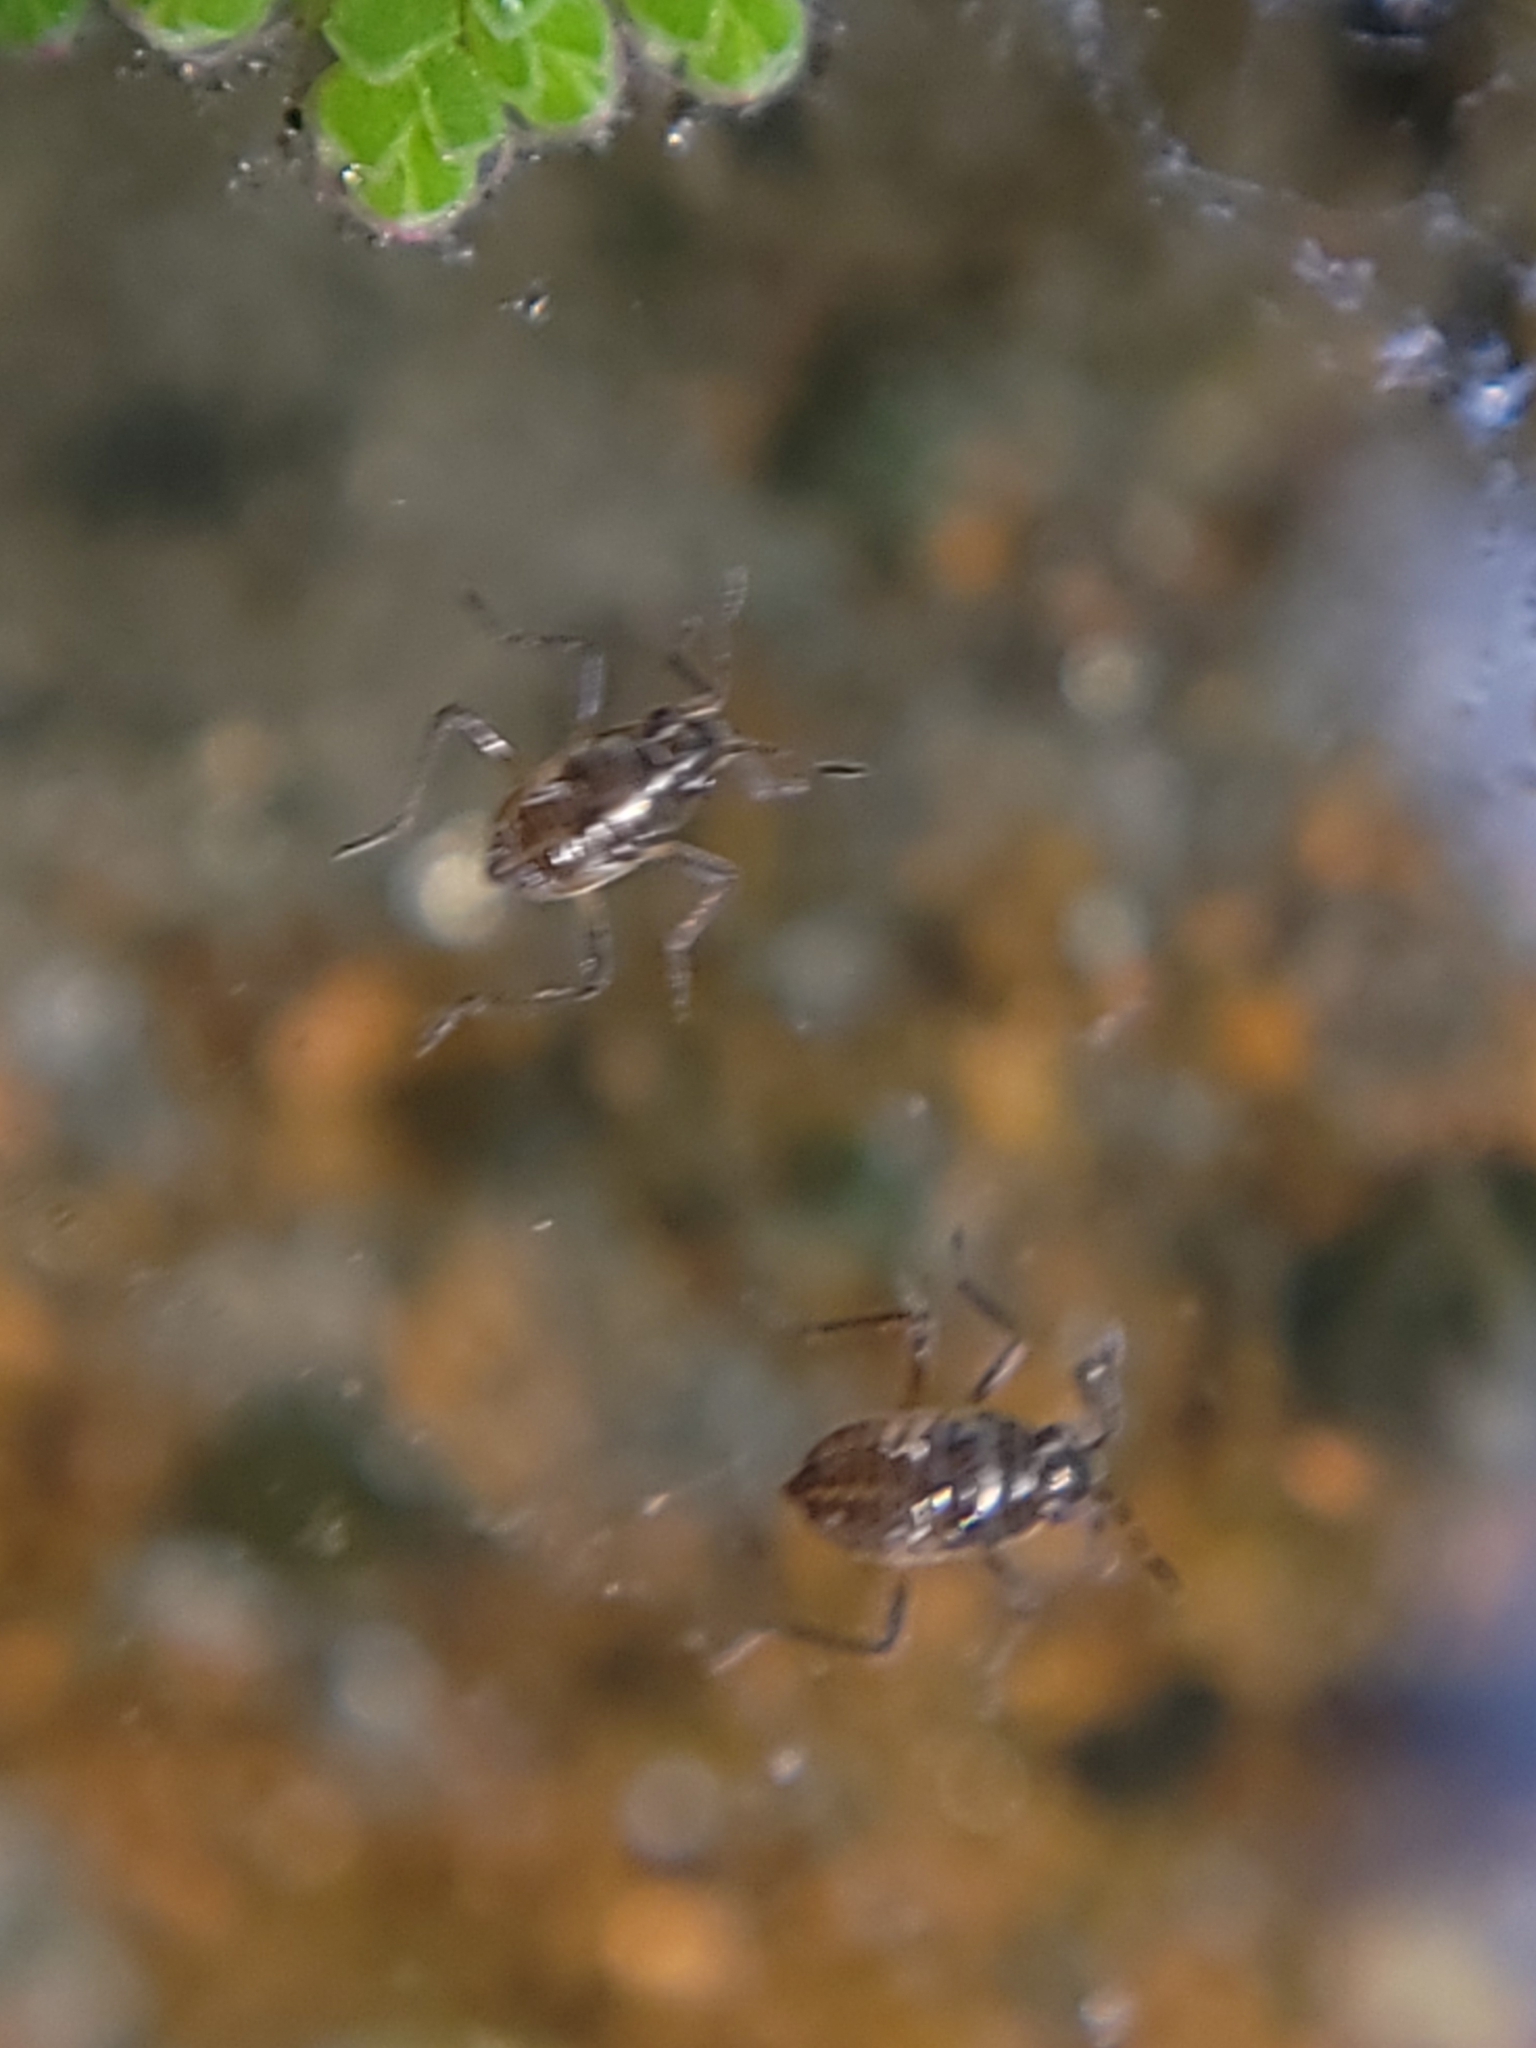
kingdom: Animalia
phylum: Arthropoda
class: Insecta
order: Hemiptera
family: Veliidae
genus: Microvelia
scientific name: Microvelia
